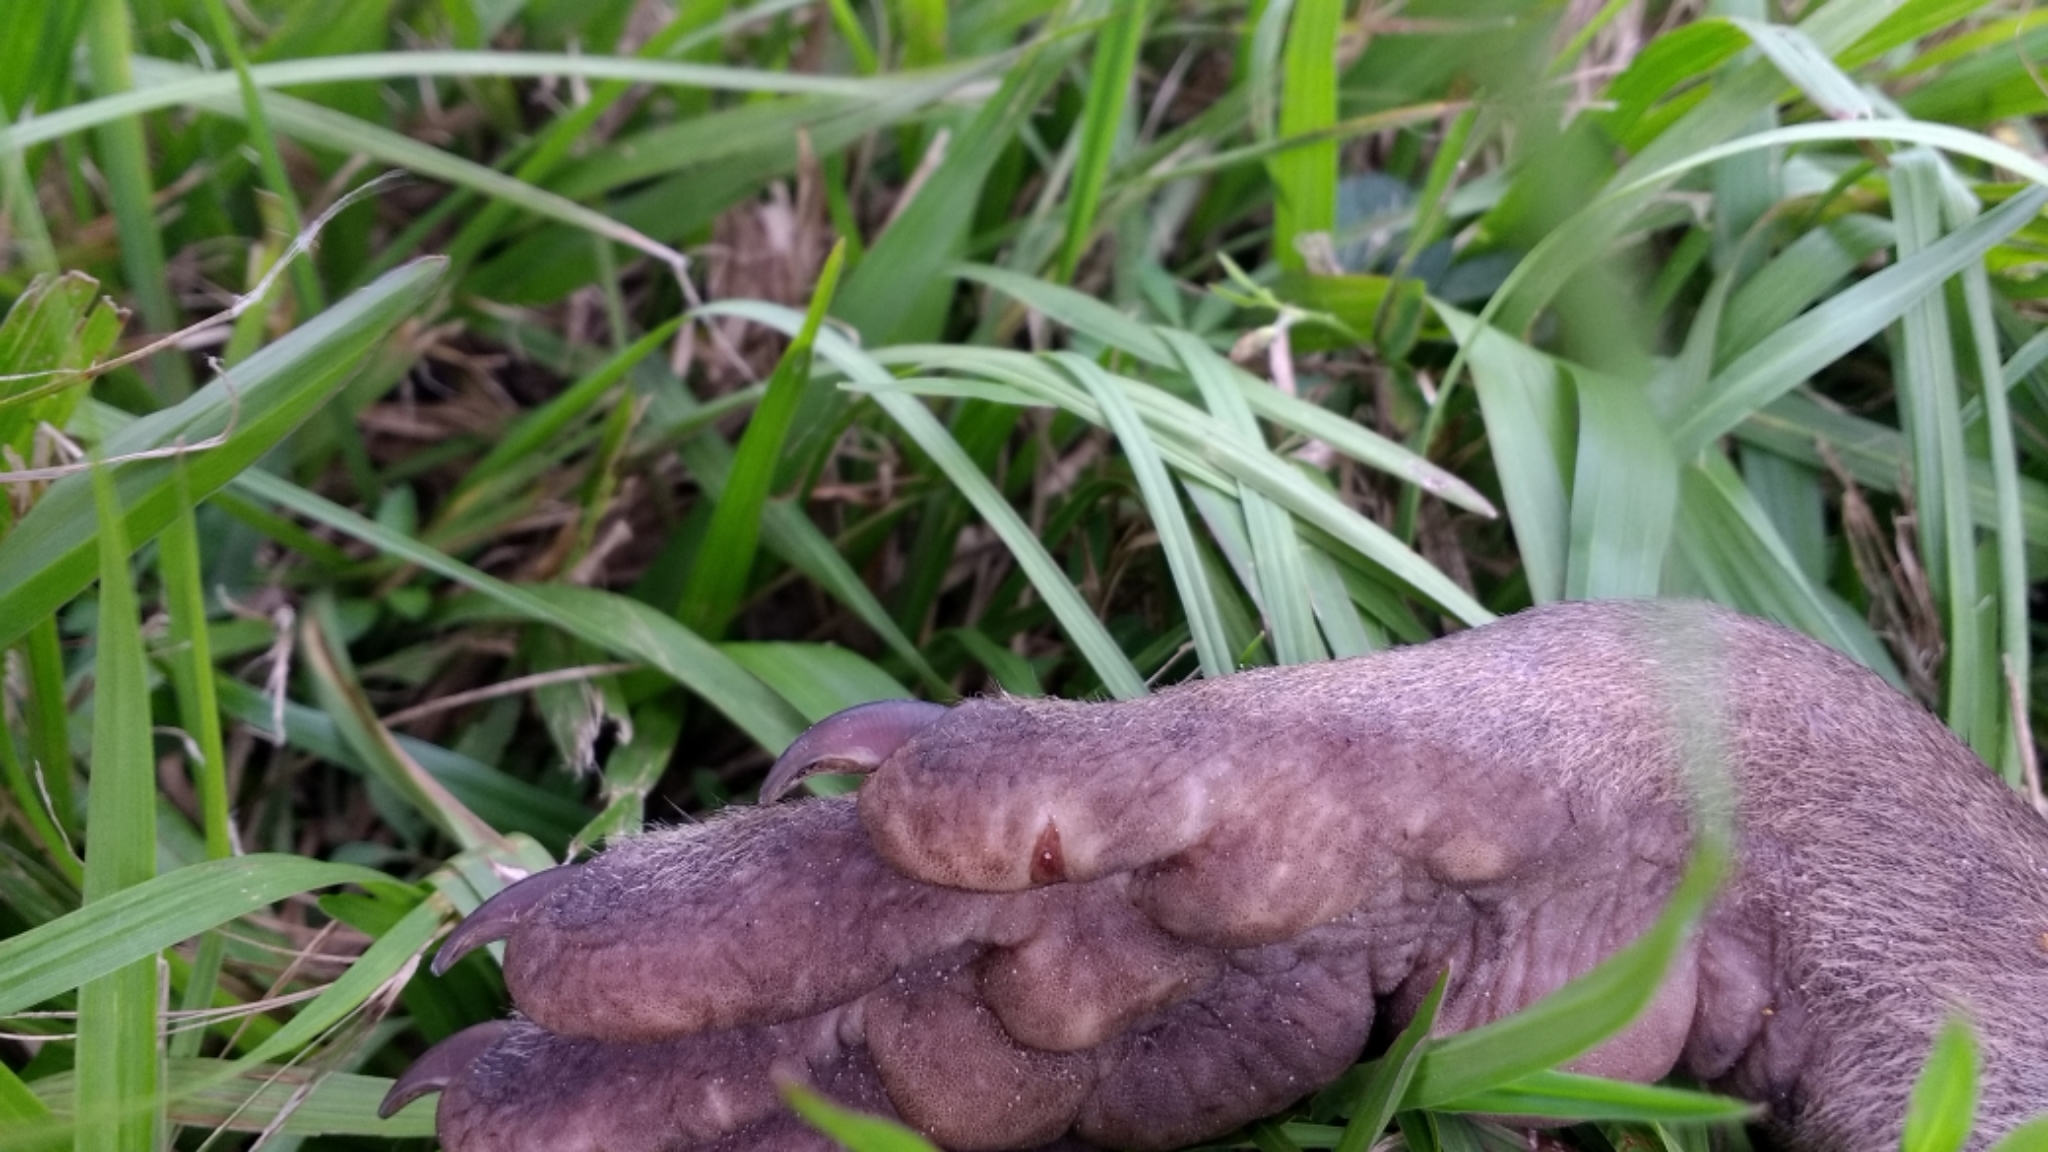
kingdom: Animalia
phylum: Chordata
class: Mammalia
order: Carnivora
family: Procyonidae
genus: Procyon
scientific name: Procyon cancrivorus
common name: Crab-eating raccoon
